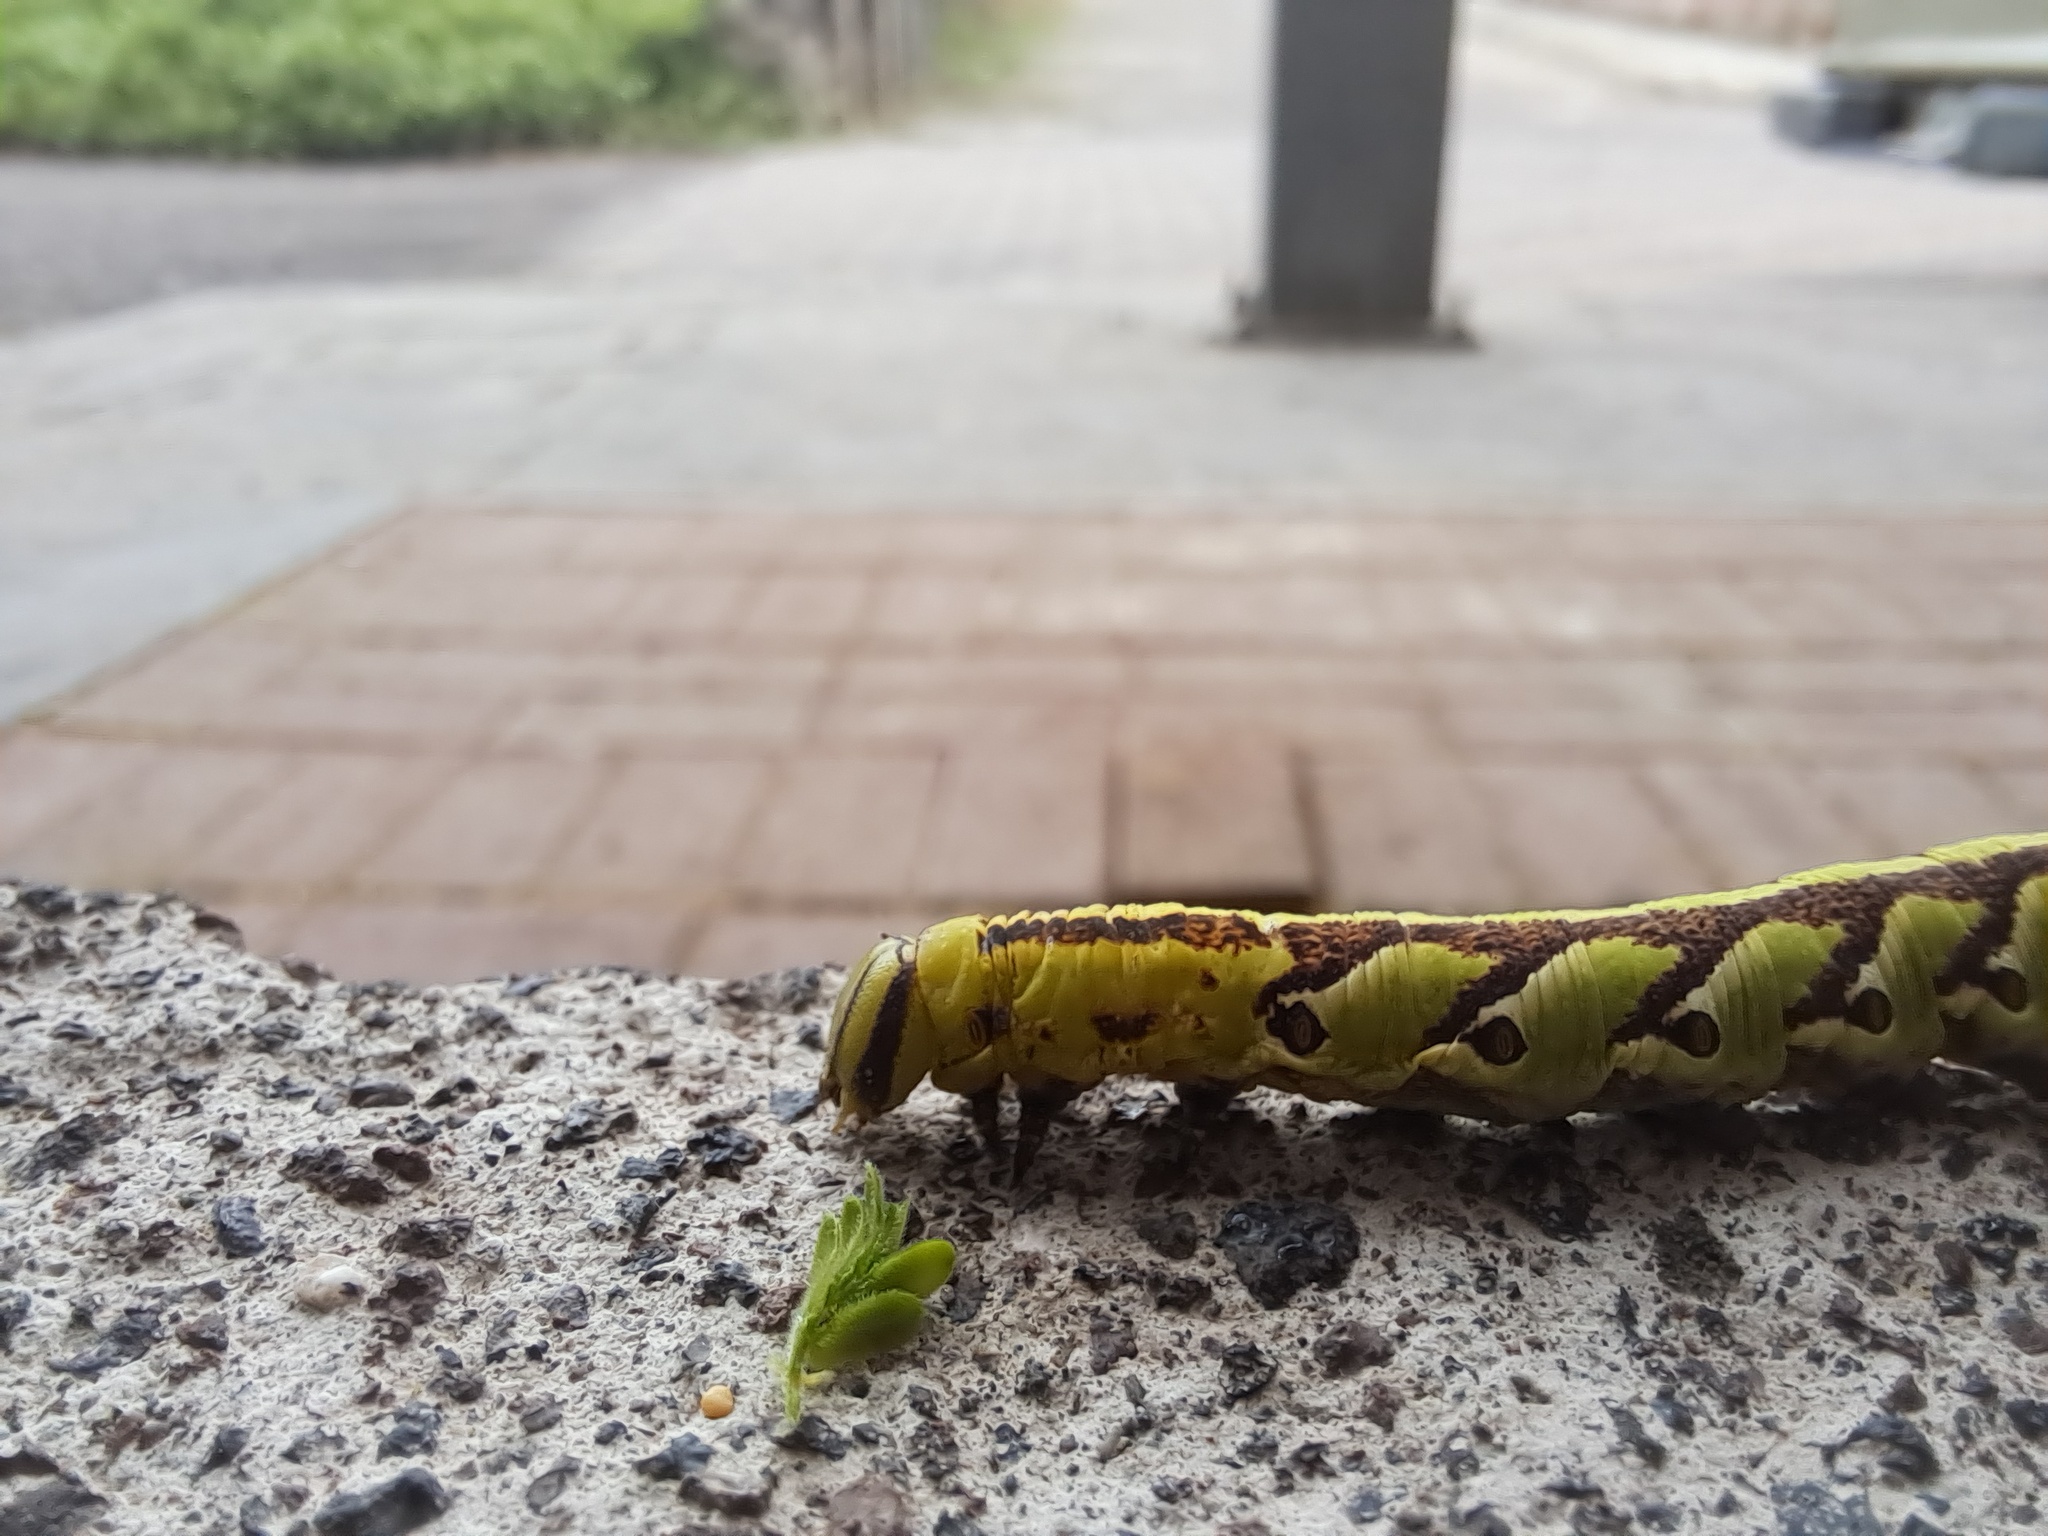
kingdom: Animalia
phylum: Arthropoda
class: Insecta
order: Lepidoptera
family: Sphingidae
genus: Agrius
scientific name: Agrius cingulata
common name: Pink-spotted hawkmoth
